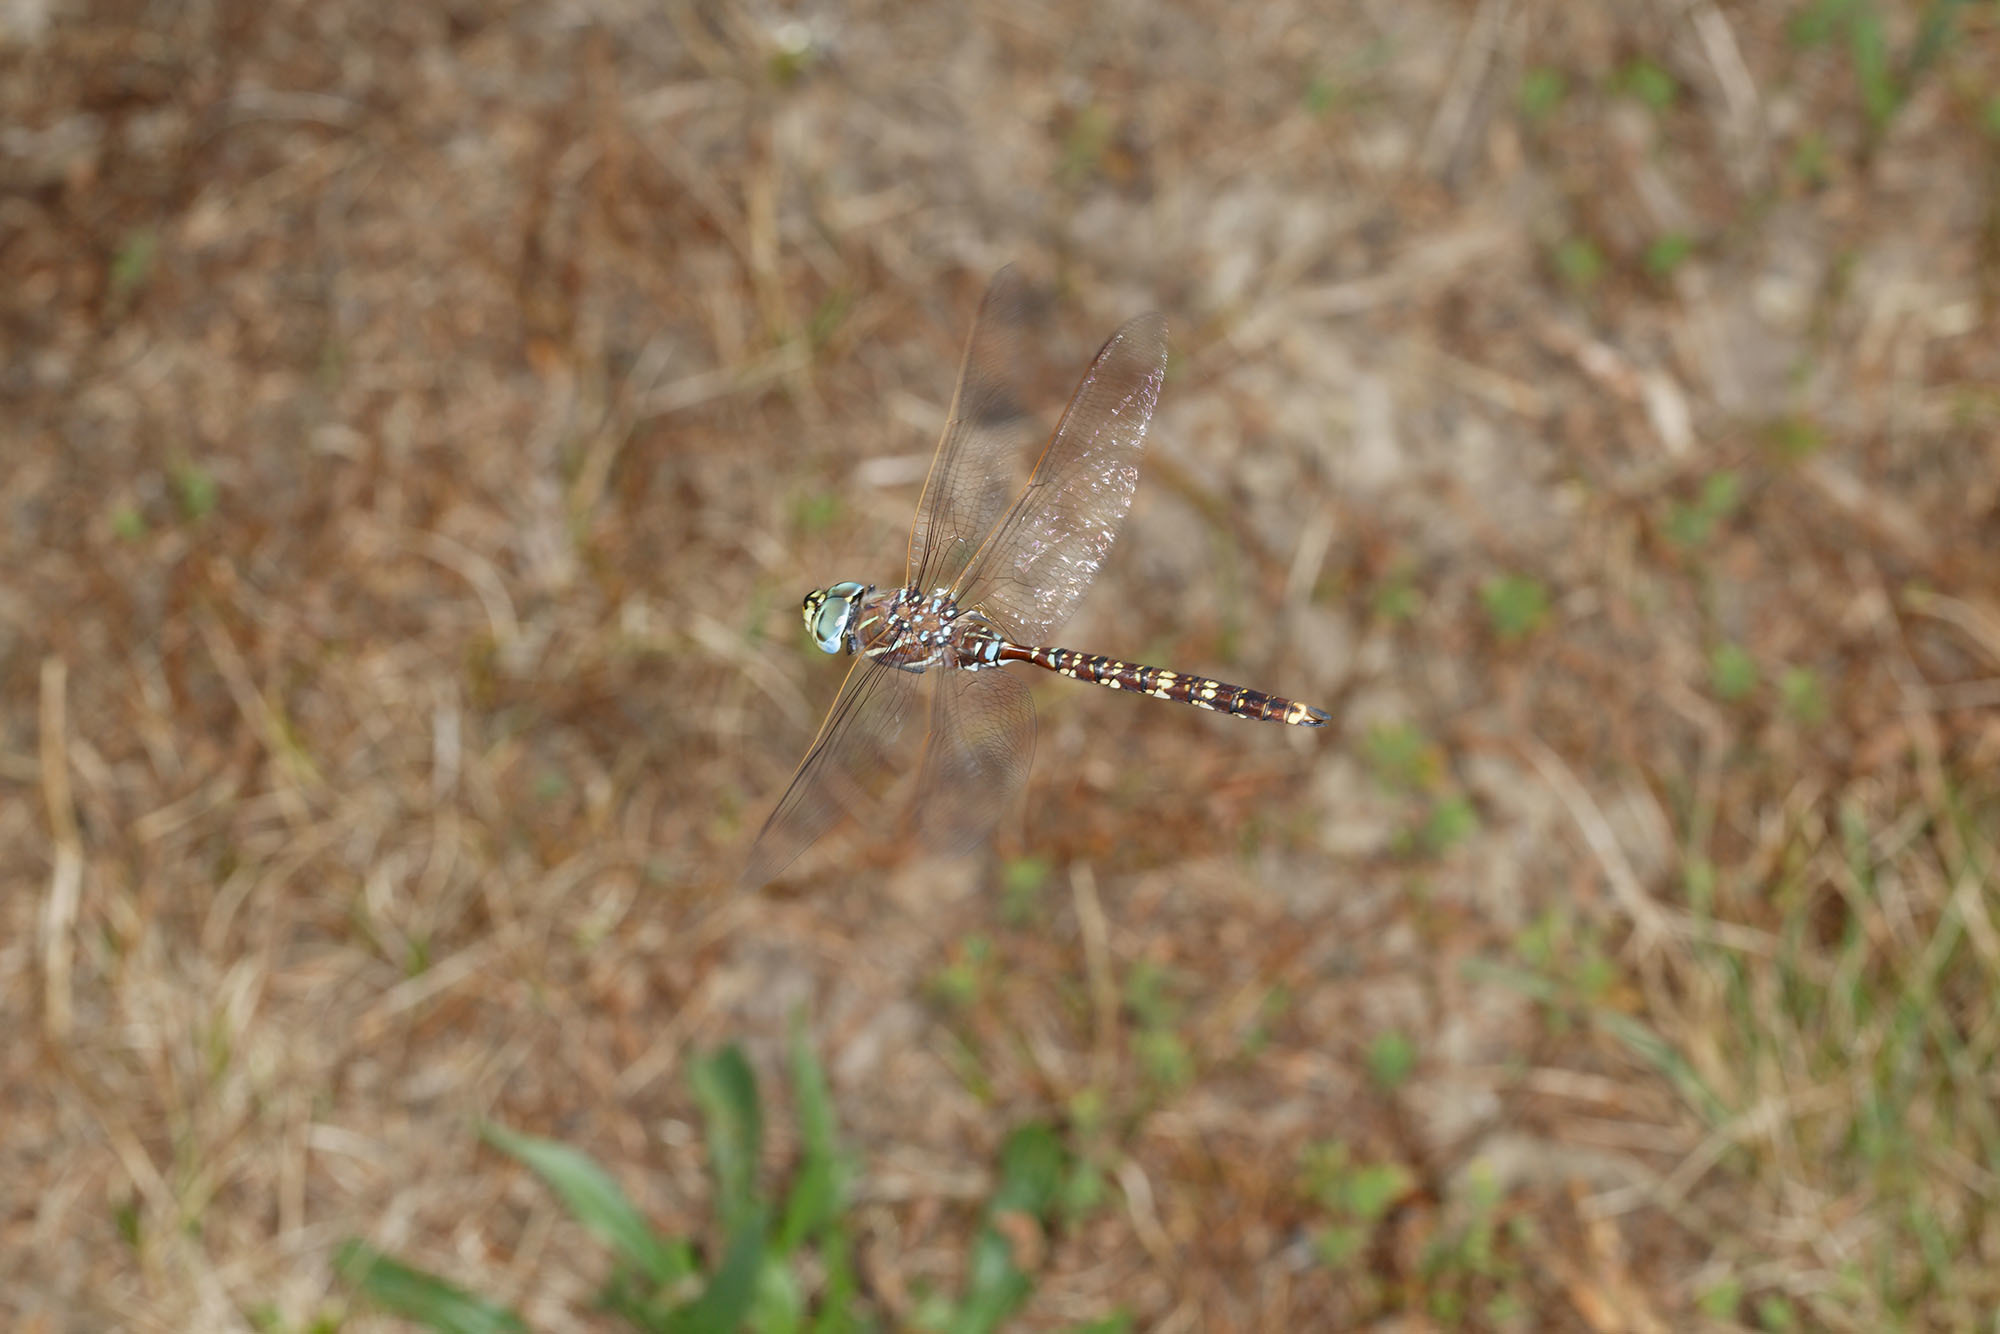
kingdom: Animalia
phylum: Arthropoda
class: Insecta
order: Odonata
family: Aeshnidae
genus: Aeshna
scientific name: Aeshna brevistyla
